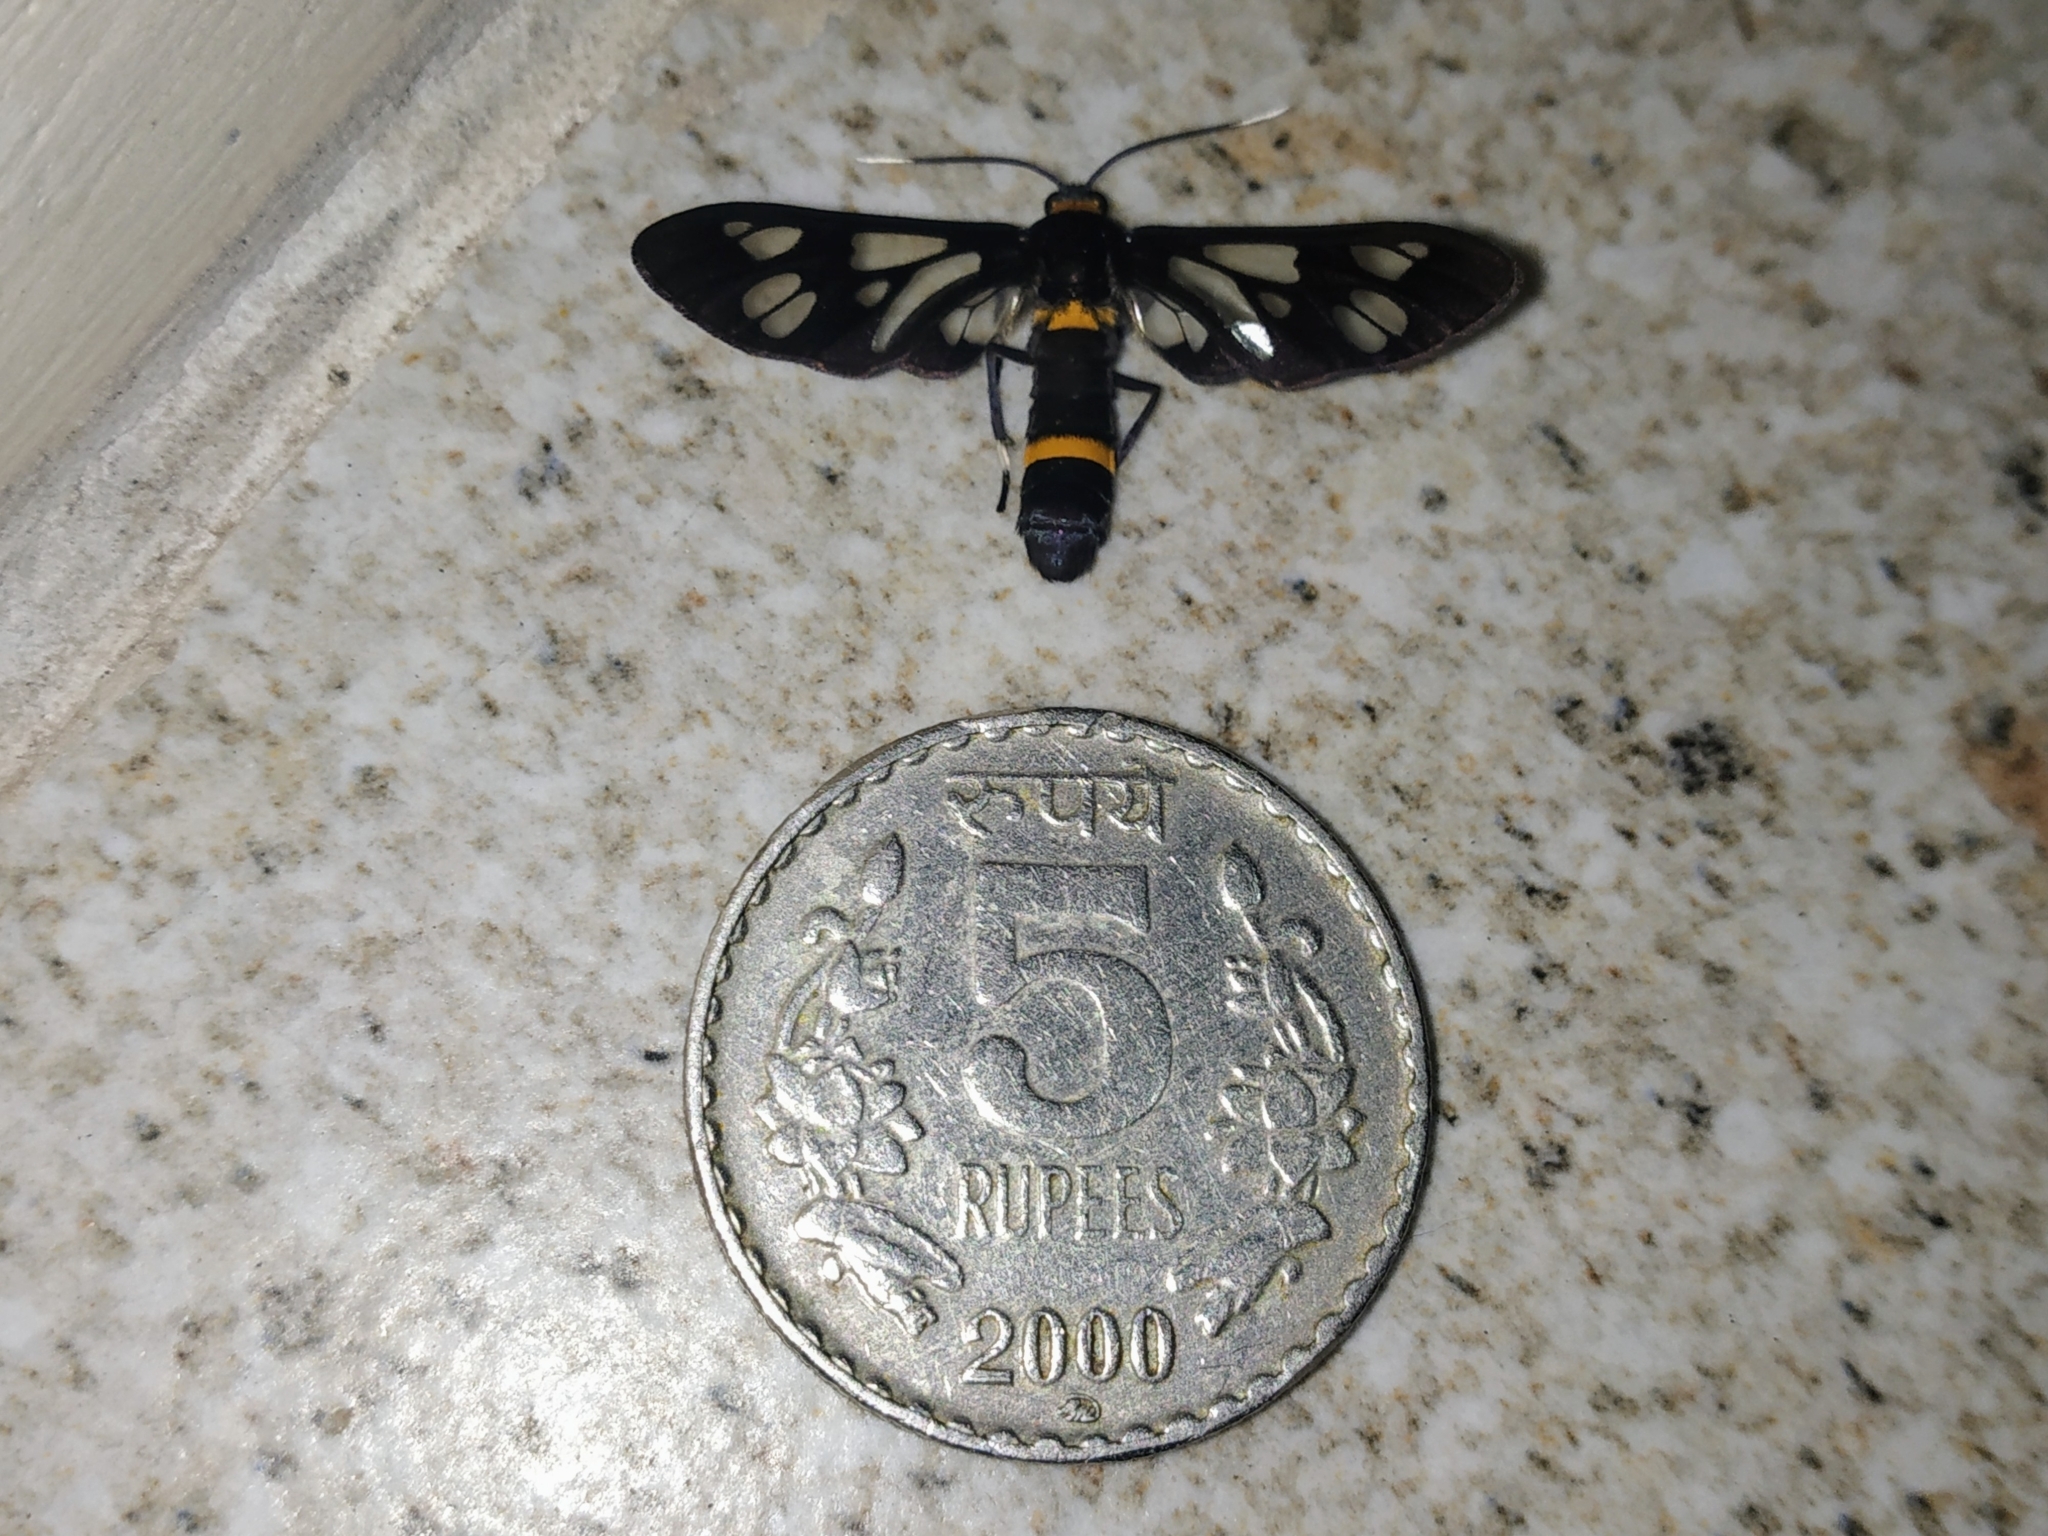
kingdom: Animalia
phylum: Arthropoda
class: Insecta
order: Lepidoptera
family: Erebidae
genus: Syntomoides
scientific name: Syntomoides imaon
